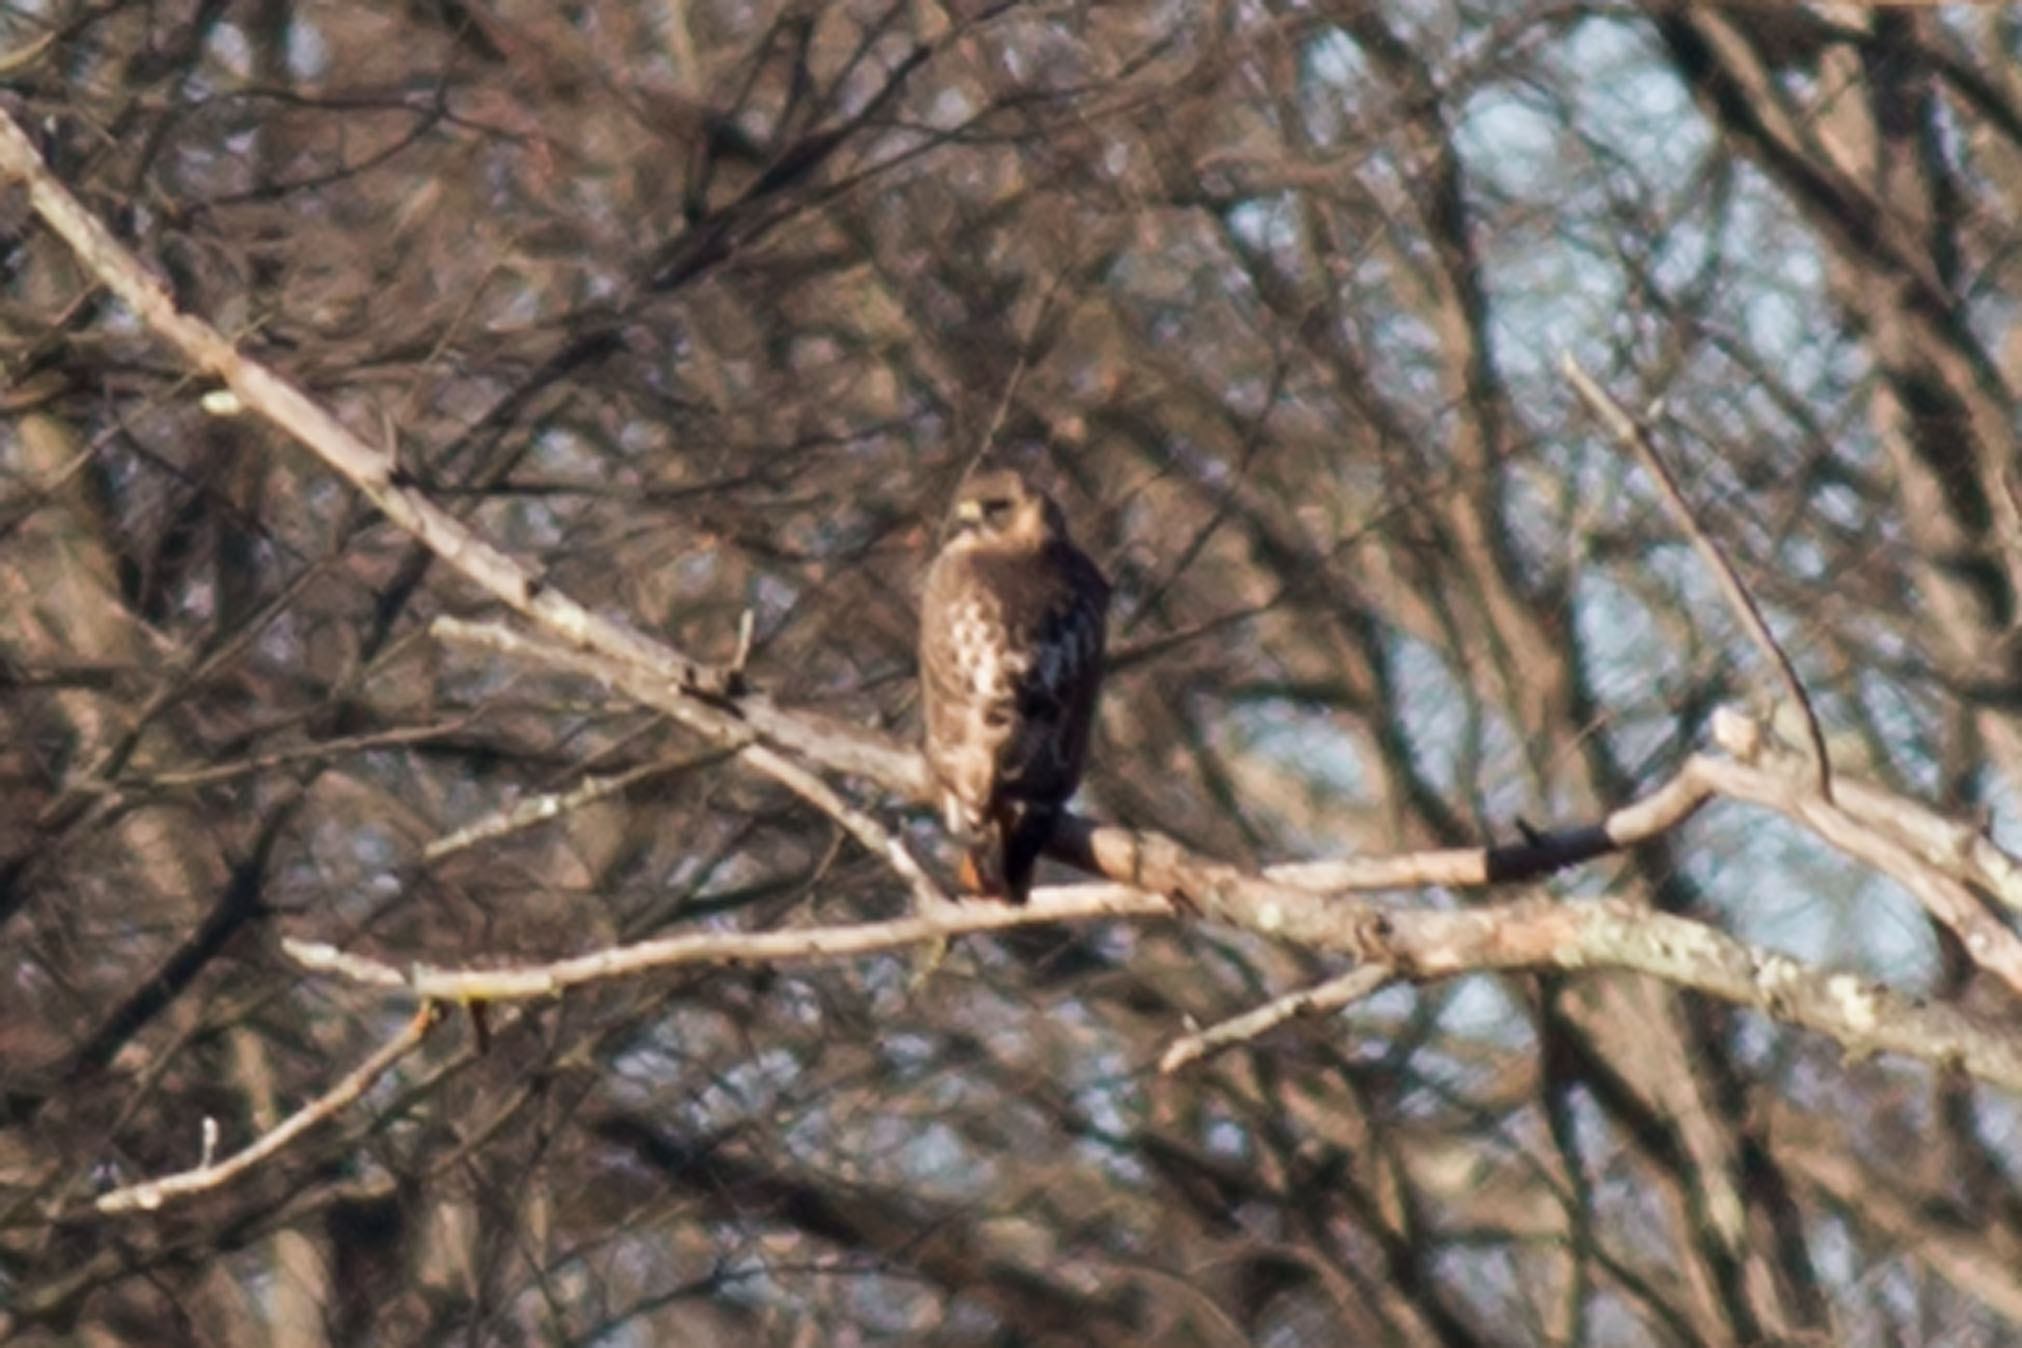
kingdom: Animalia
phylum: Chordata
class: Aves
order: Accipitriformes
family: Accipitridae
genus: Buteo
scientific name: Buteo jamaicensis
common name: Red-tailed hawk
